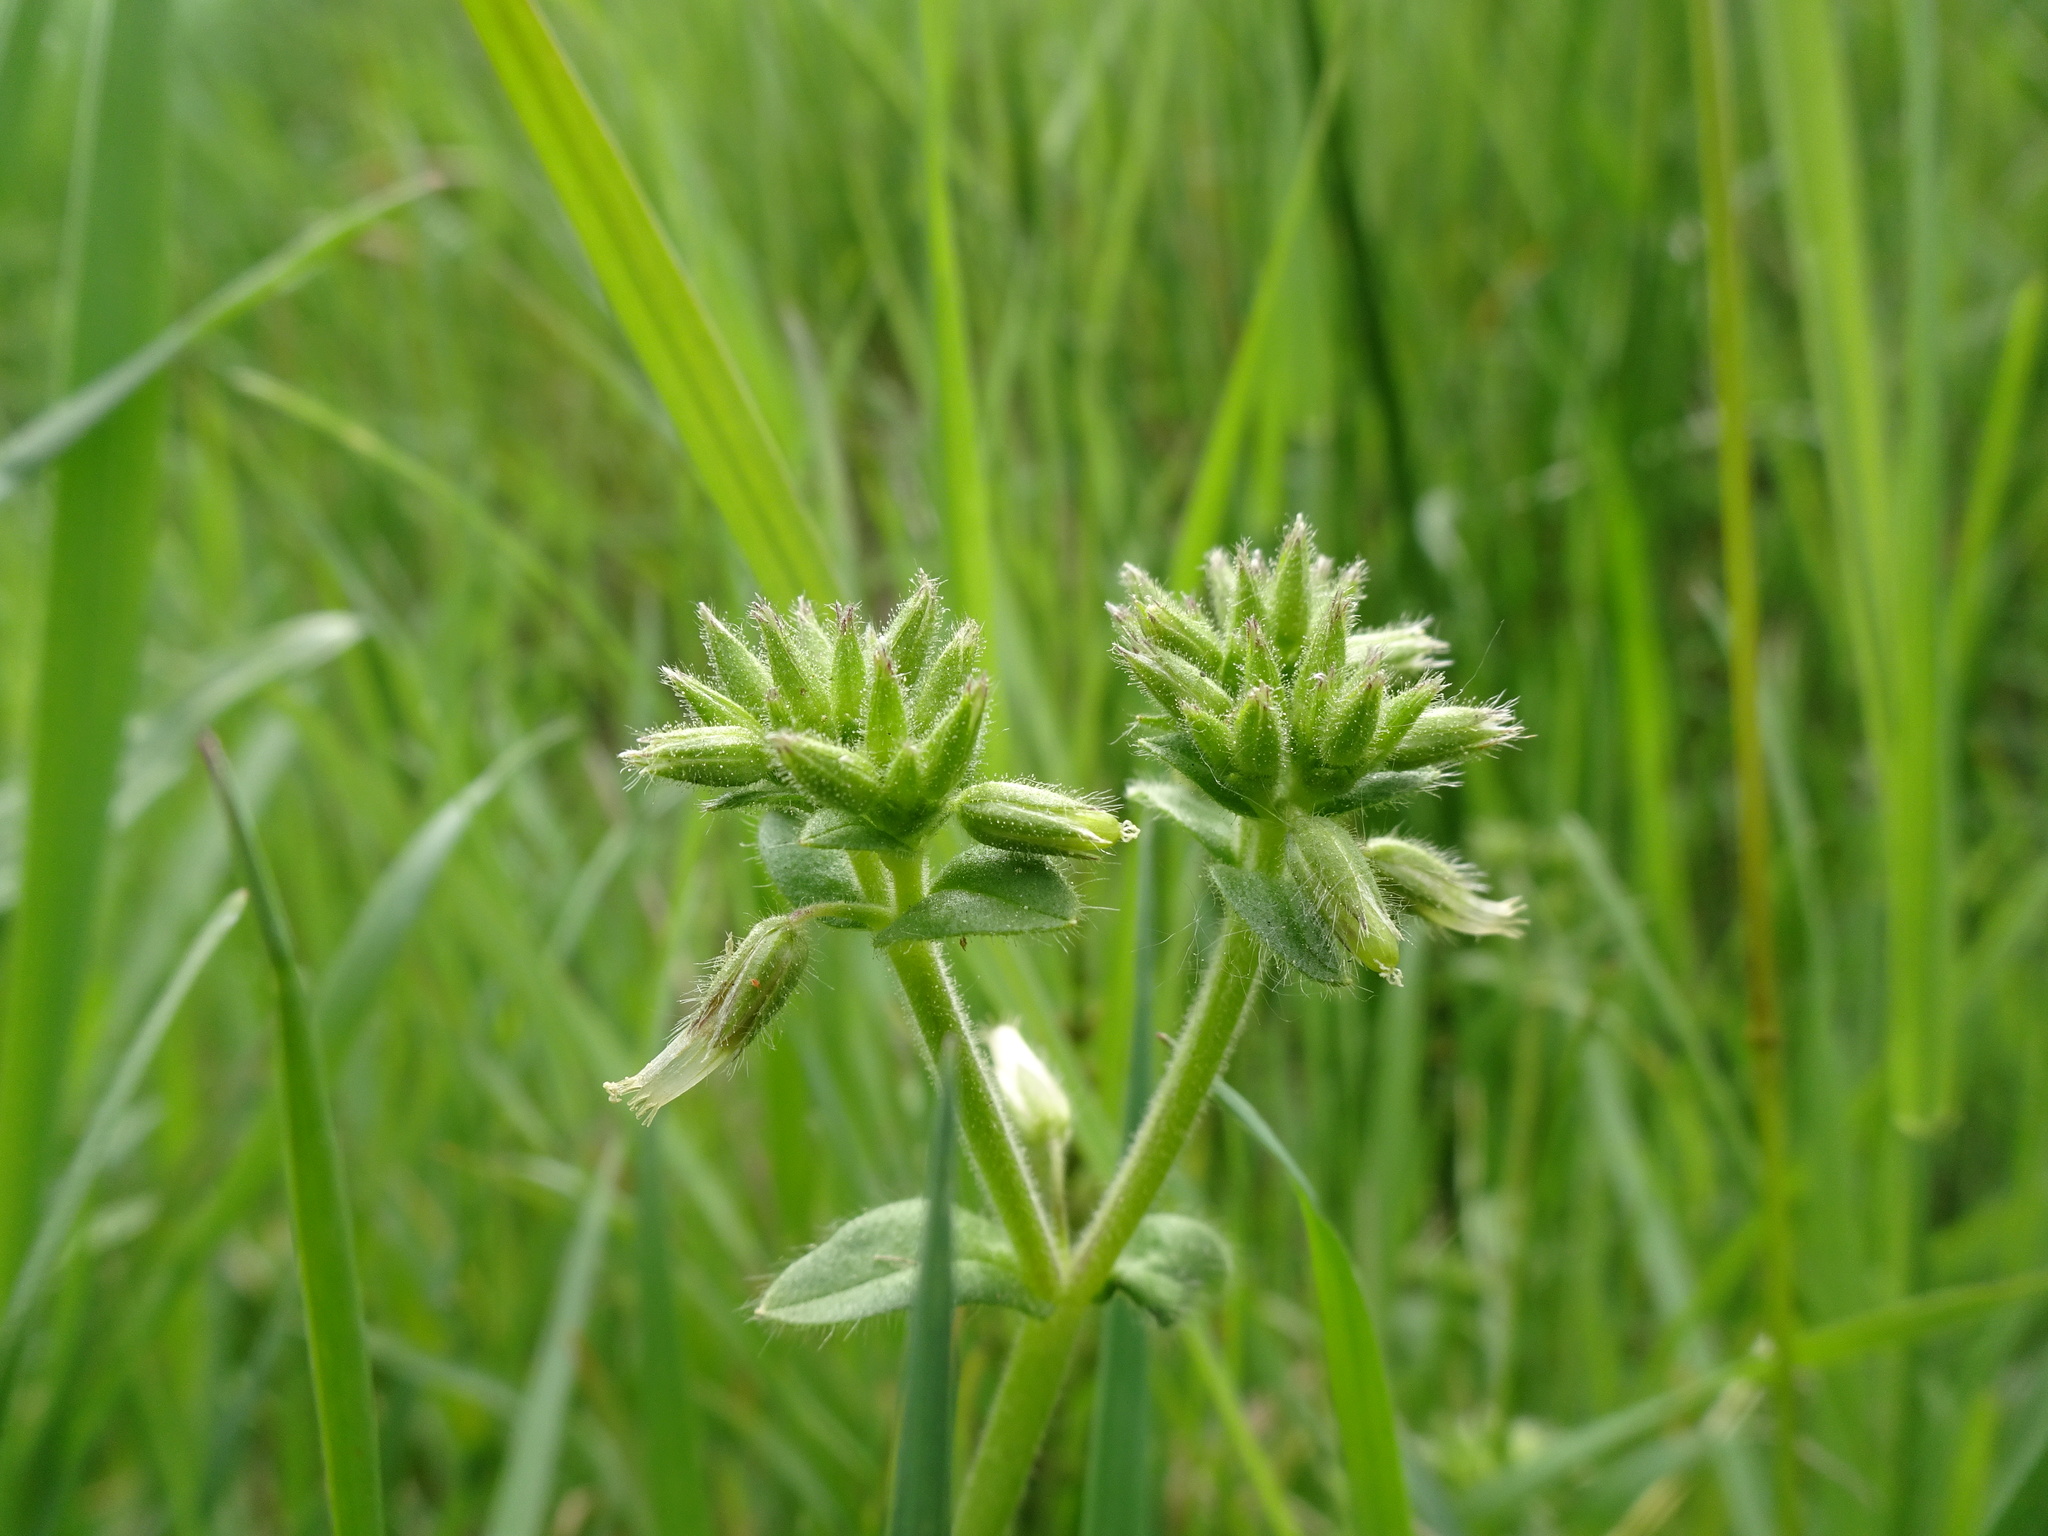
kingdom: Plantae
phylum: Tracheophyta
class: Magnoliopsida
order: Caryophyllales
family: Caryophyllaceae
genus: Cerastium
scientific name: Cerastium glomeratum
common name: Sticky chickweed
